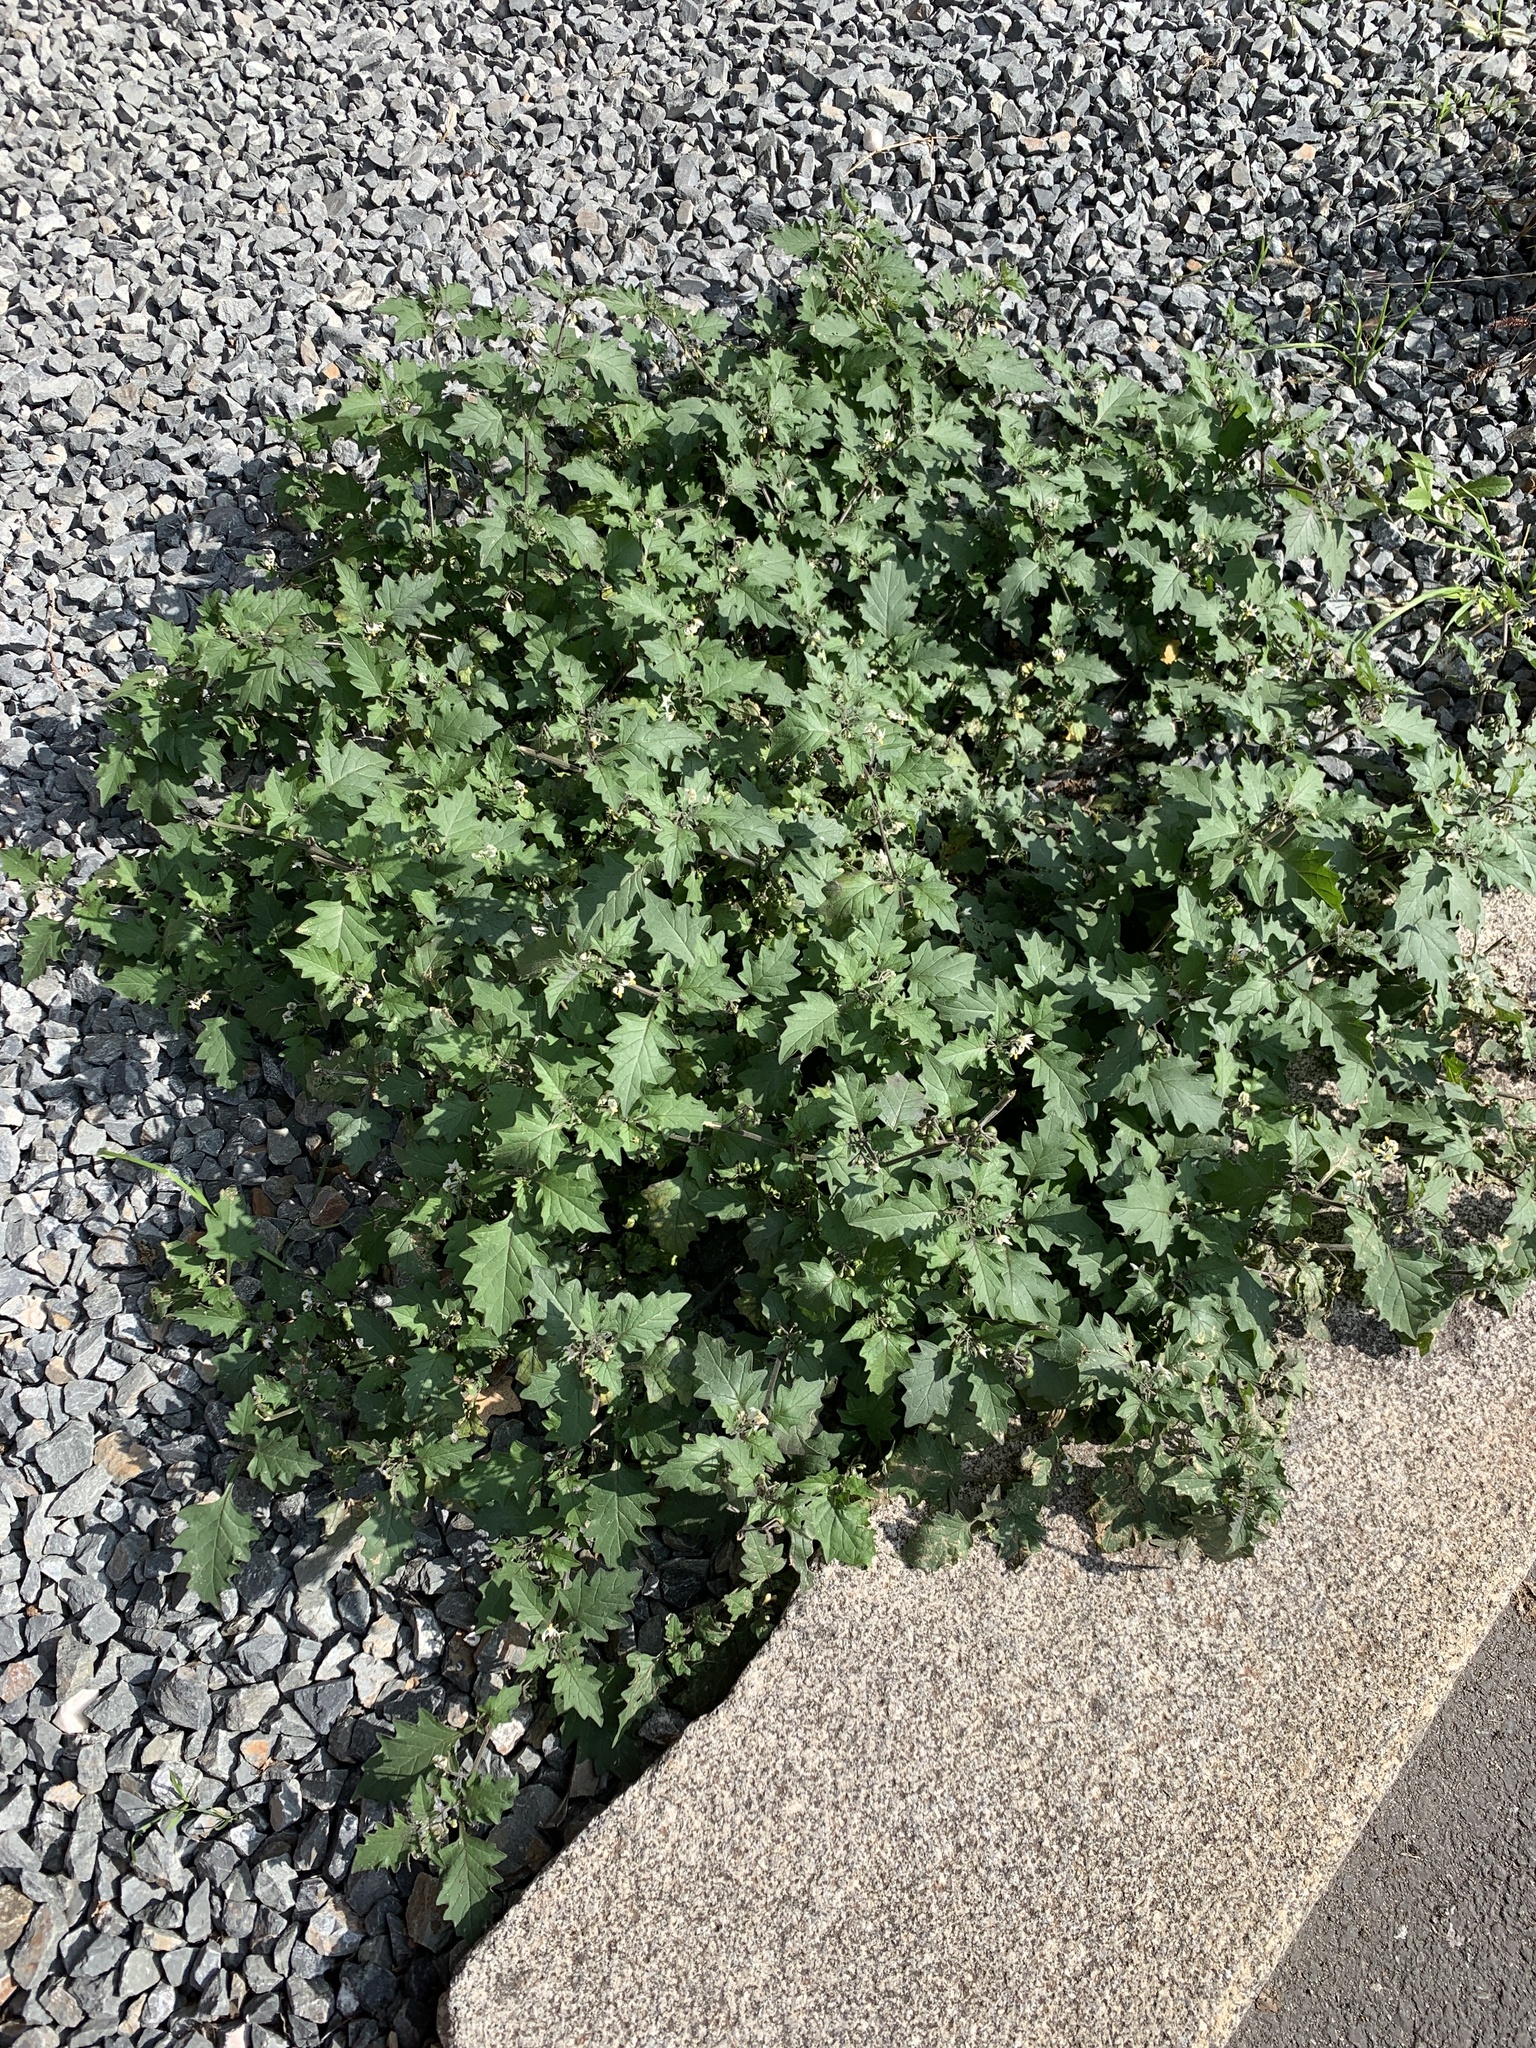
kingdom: Plantae
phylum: Tracheophyta
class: Magnoliopsida
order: Solanales
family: Solanaceae
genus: Solanum
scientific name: Solanum nigrum
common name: Black nightshade
